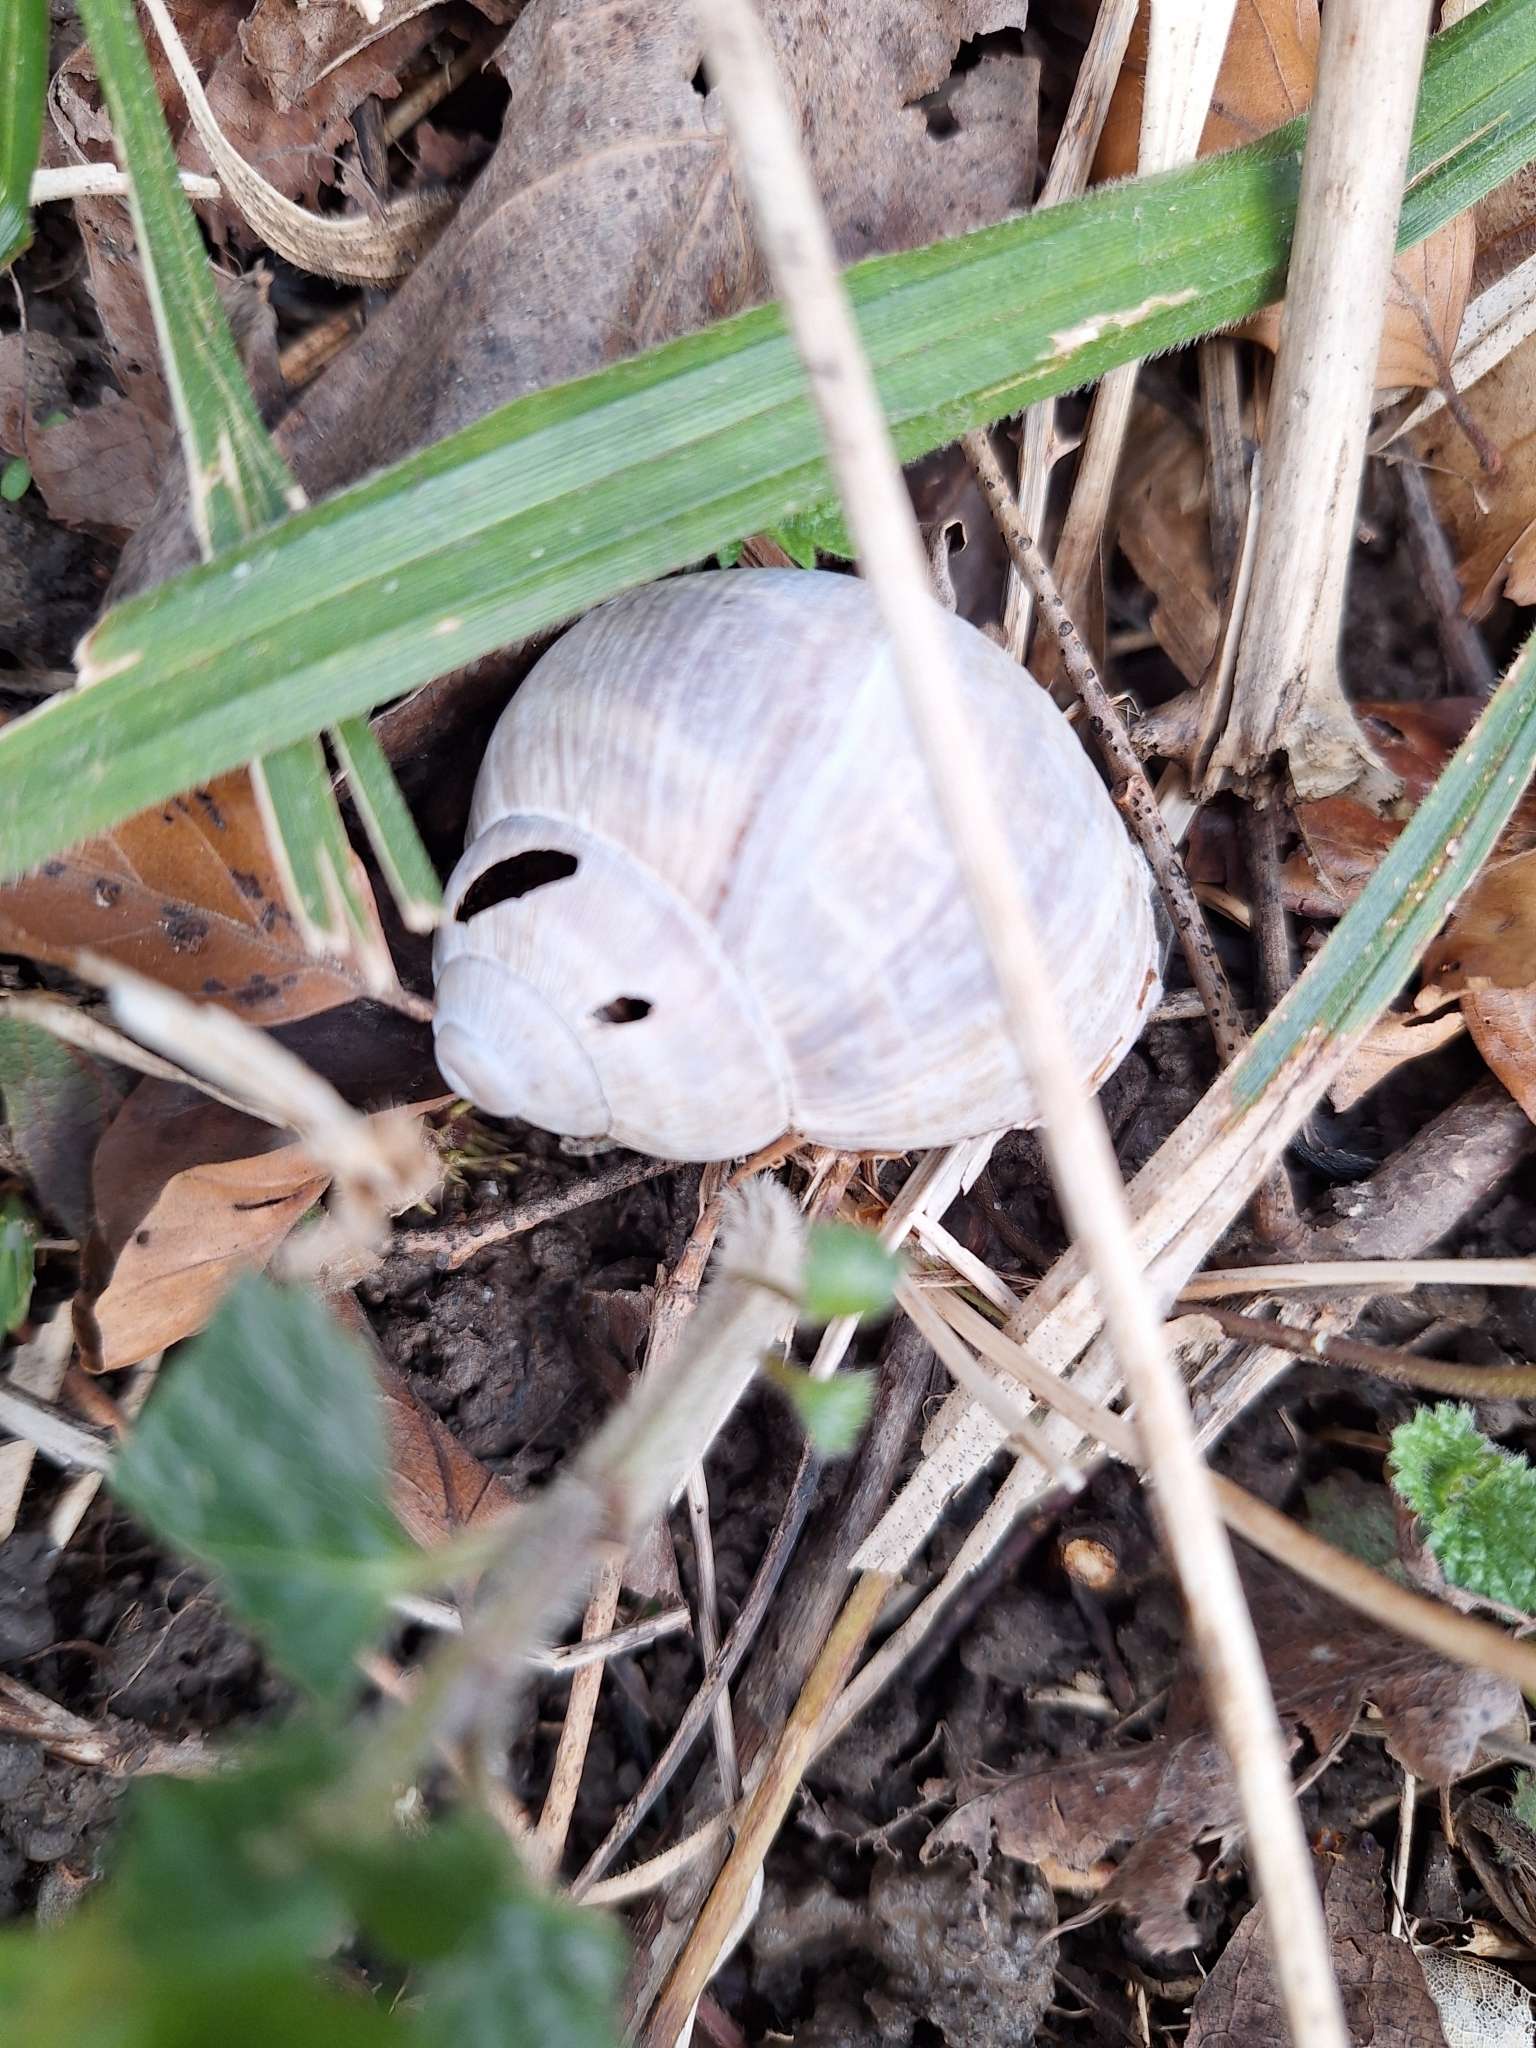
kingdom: Animalia
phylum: Mollusca
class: Gastropoda
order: Stylommatophora
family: Helicidae
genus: Helix
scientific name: Helix pomatia
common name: Roman snail
